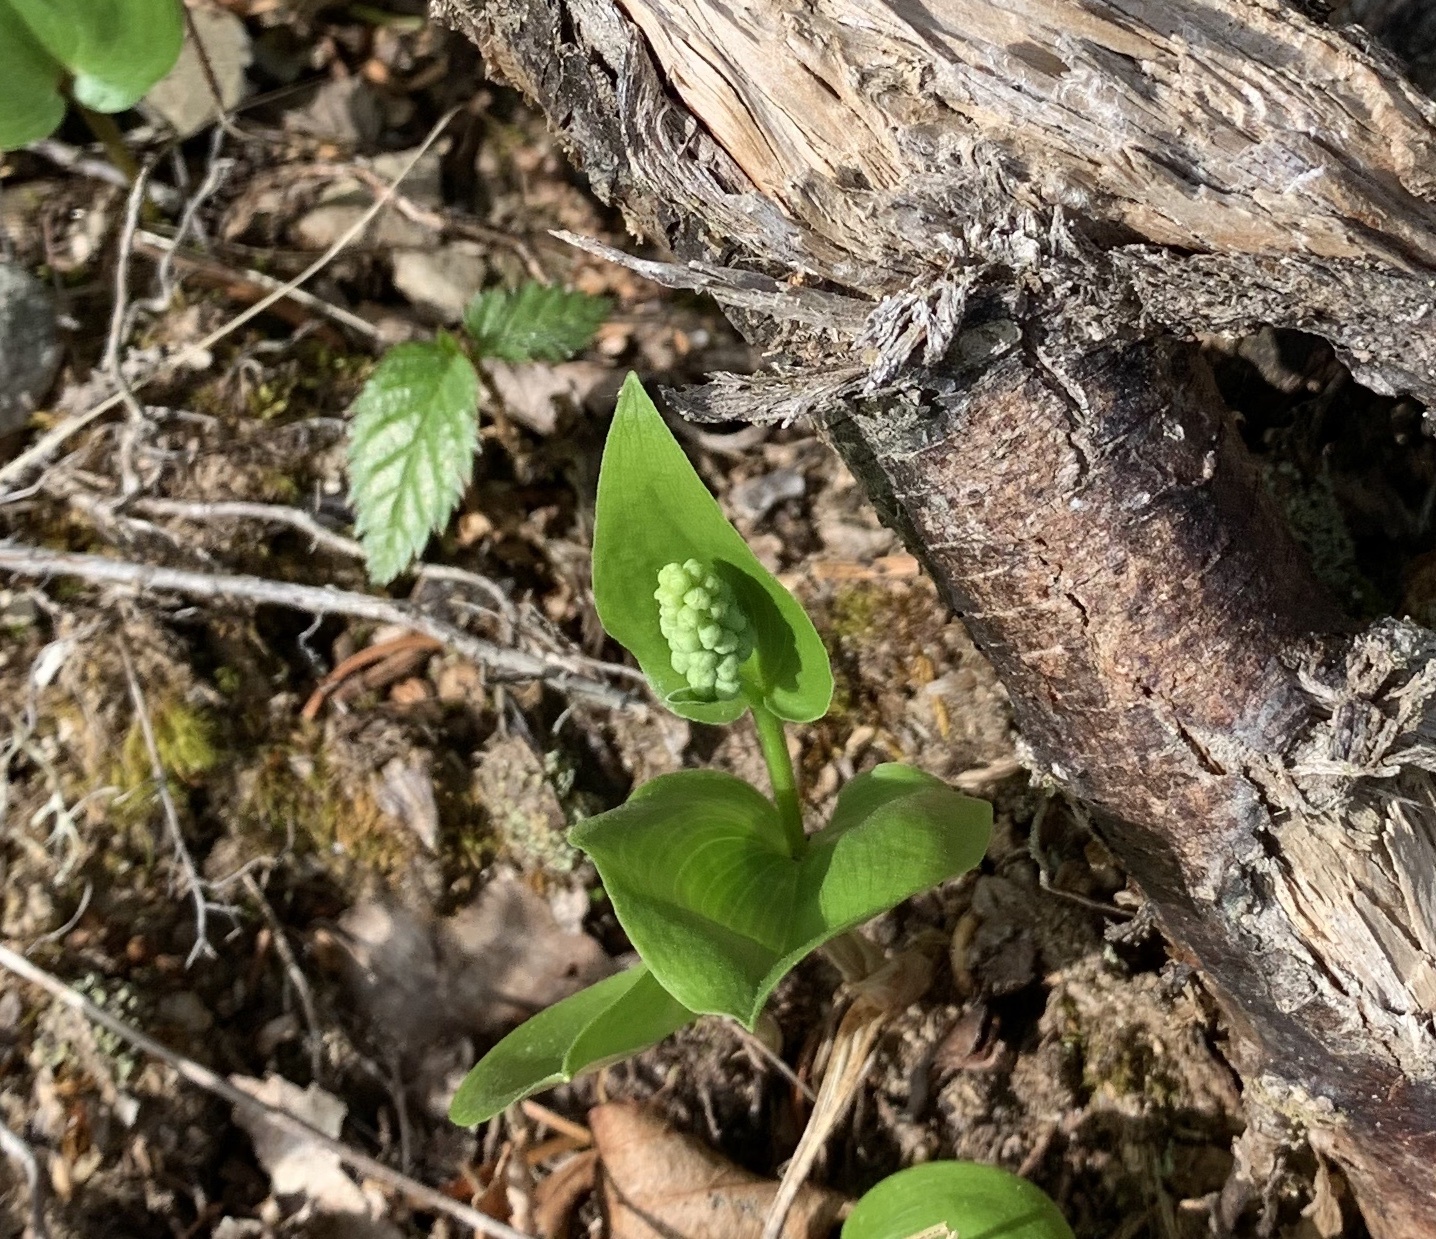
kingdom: Plantae
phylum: Tracheophyta
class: Liliopsida
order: Asparagales
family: Asparagaceae
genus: Maianthemum
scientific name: Maianthemum canadense
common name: False lily-of-the-valley
